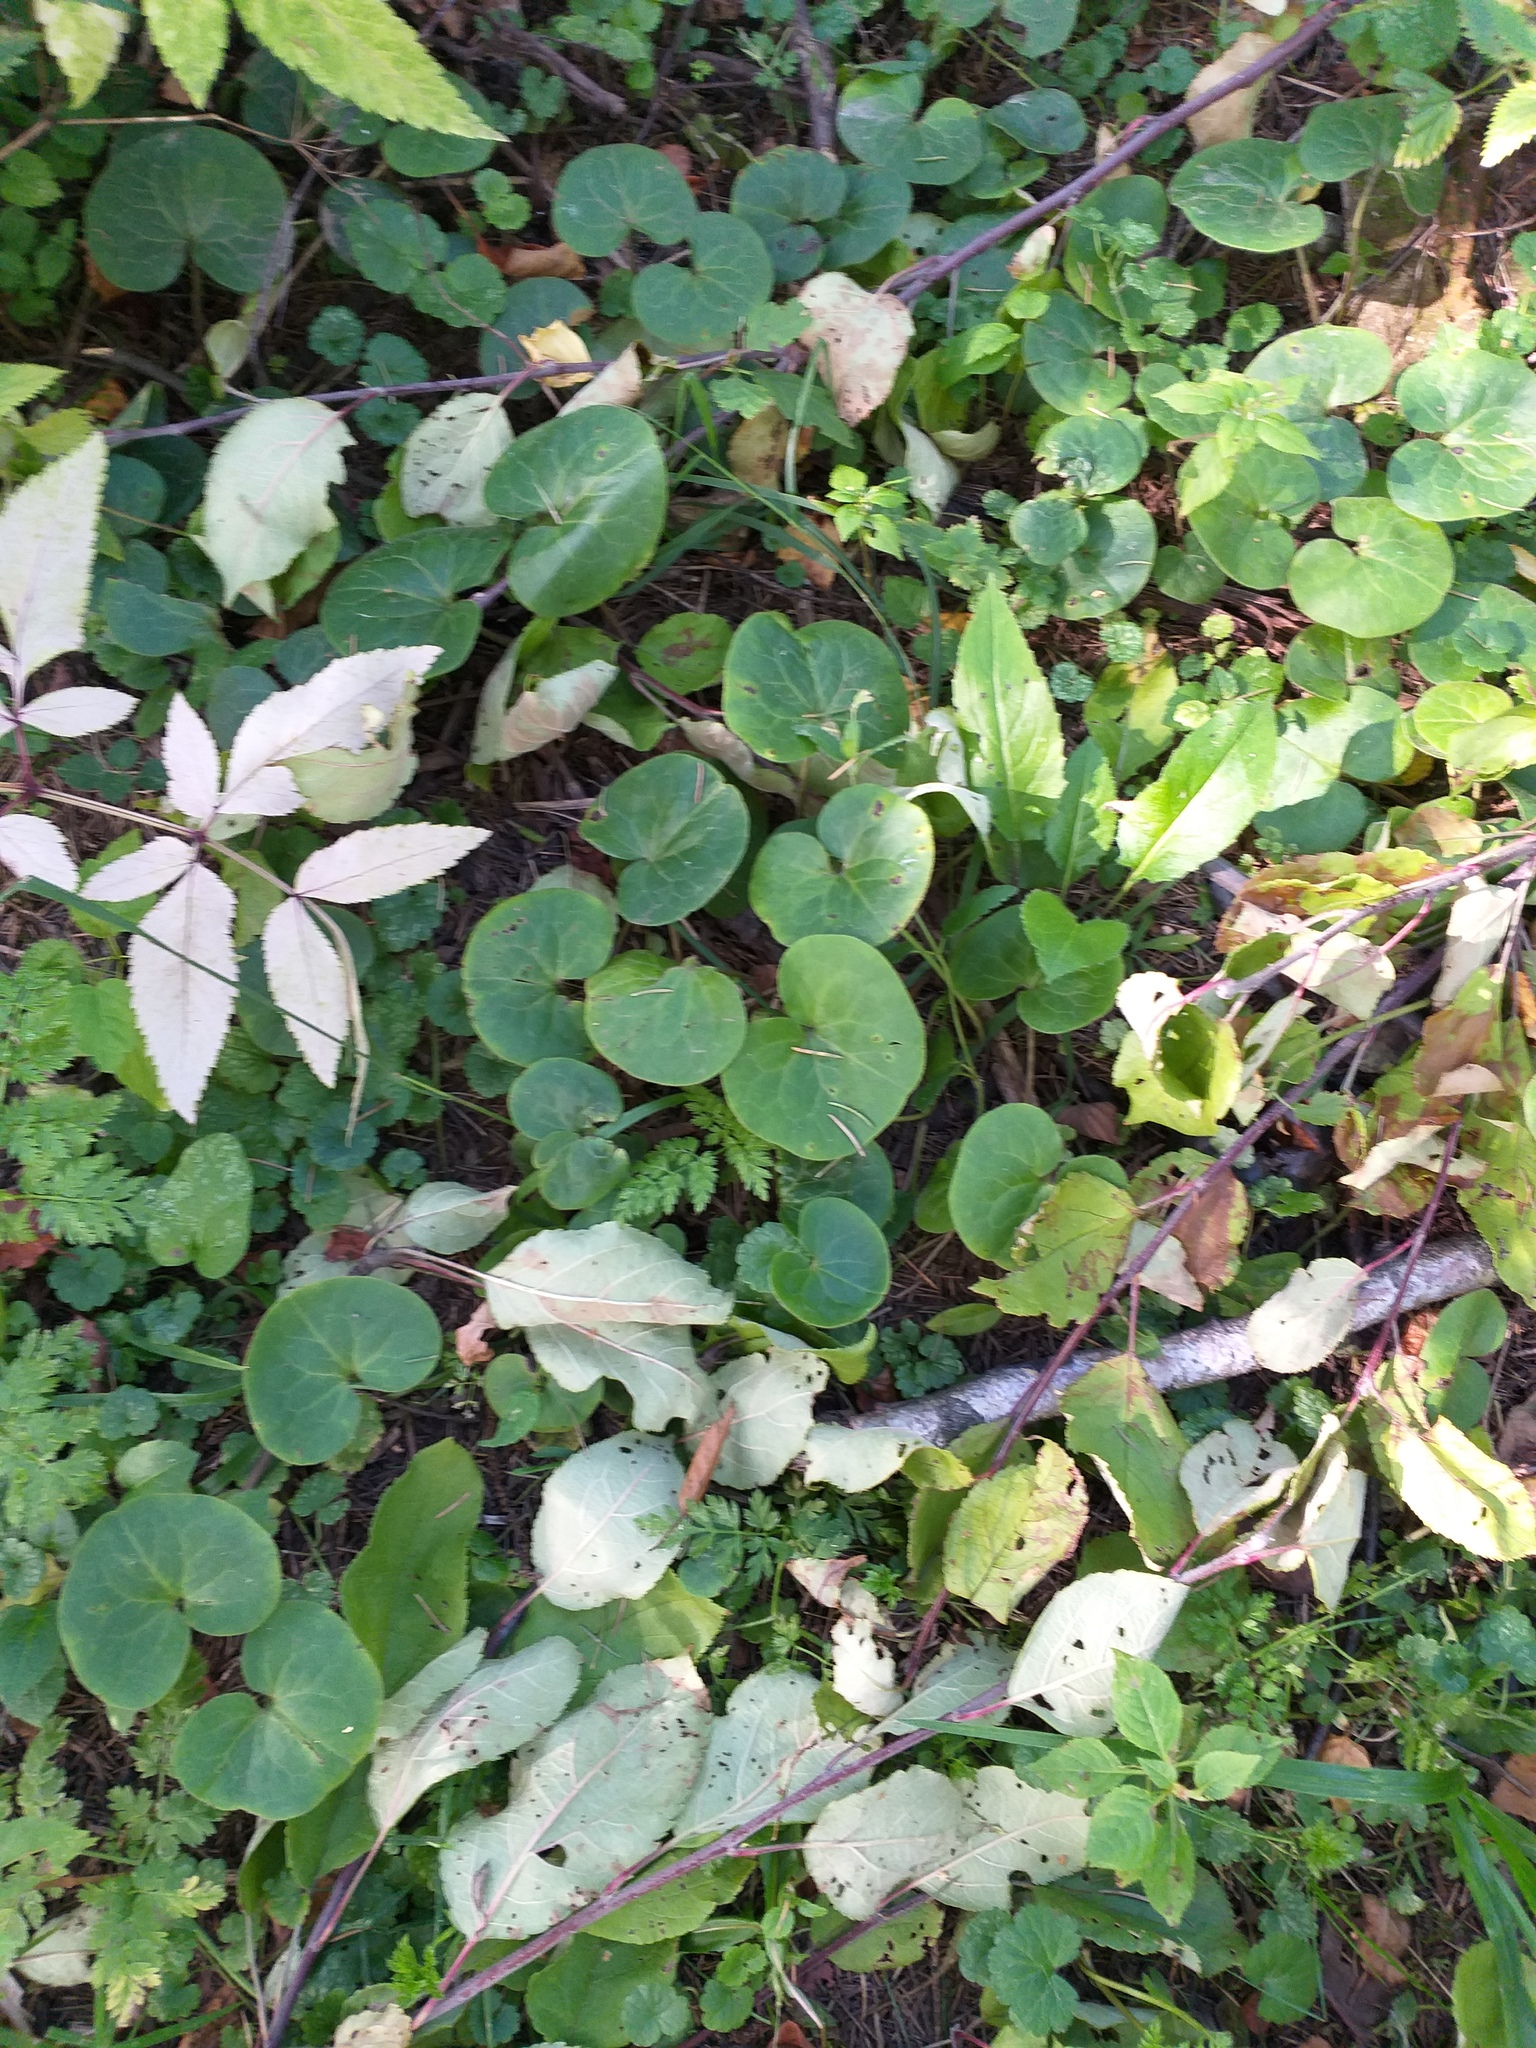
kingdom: Plantae
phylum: Tracheophyta
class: Magnoliopsida
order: Piperales
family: Aristolochiaceae
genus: Asarum
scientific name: Asarum europaeum
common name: Asarabacca
